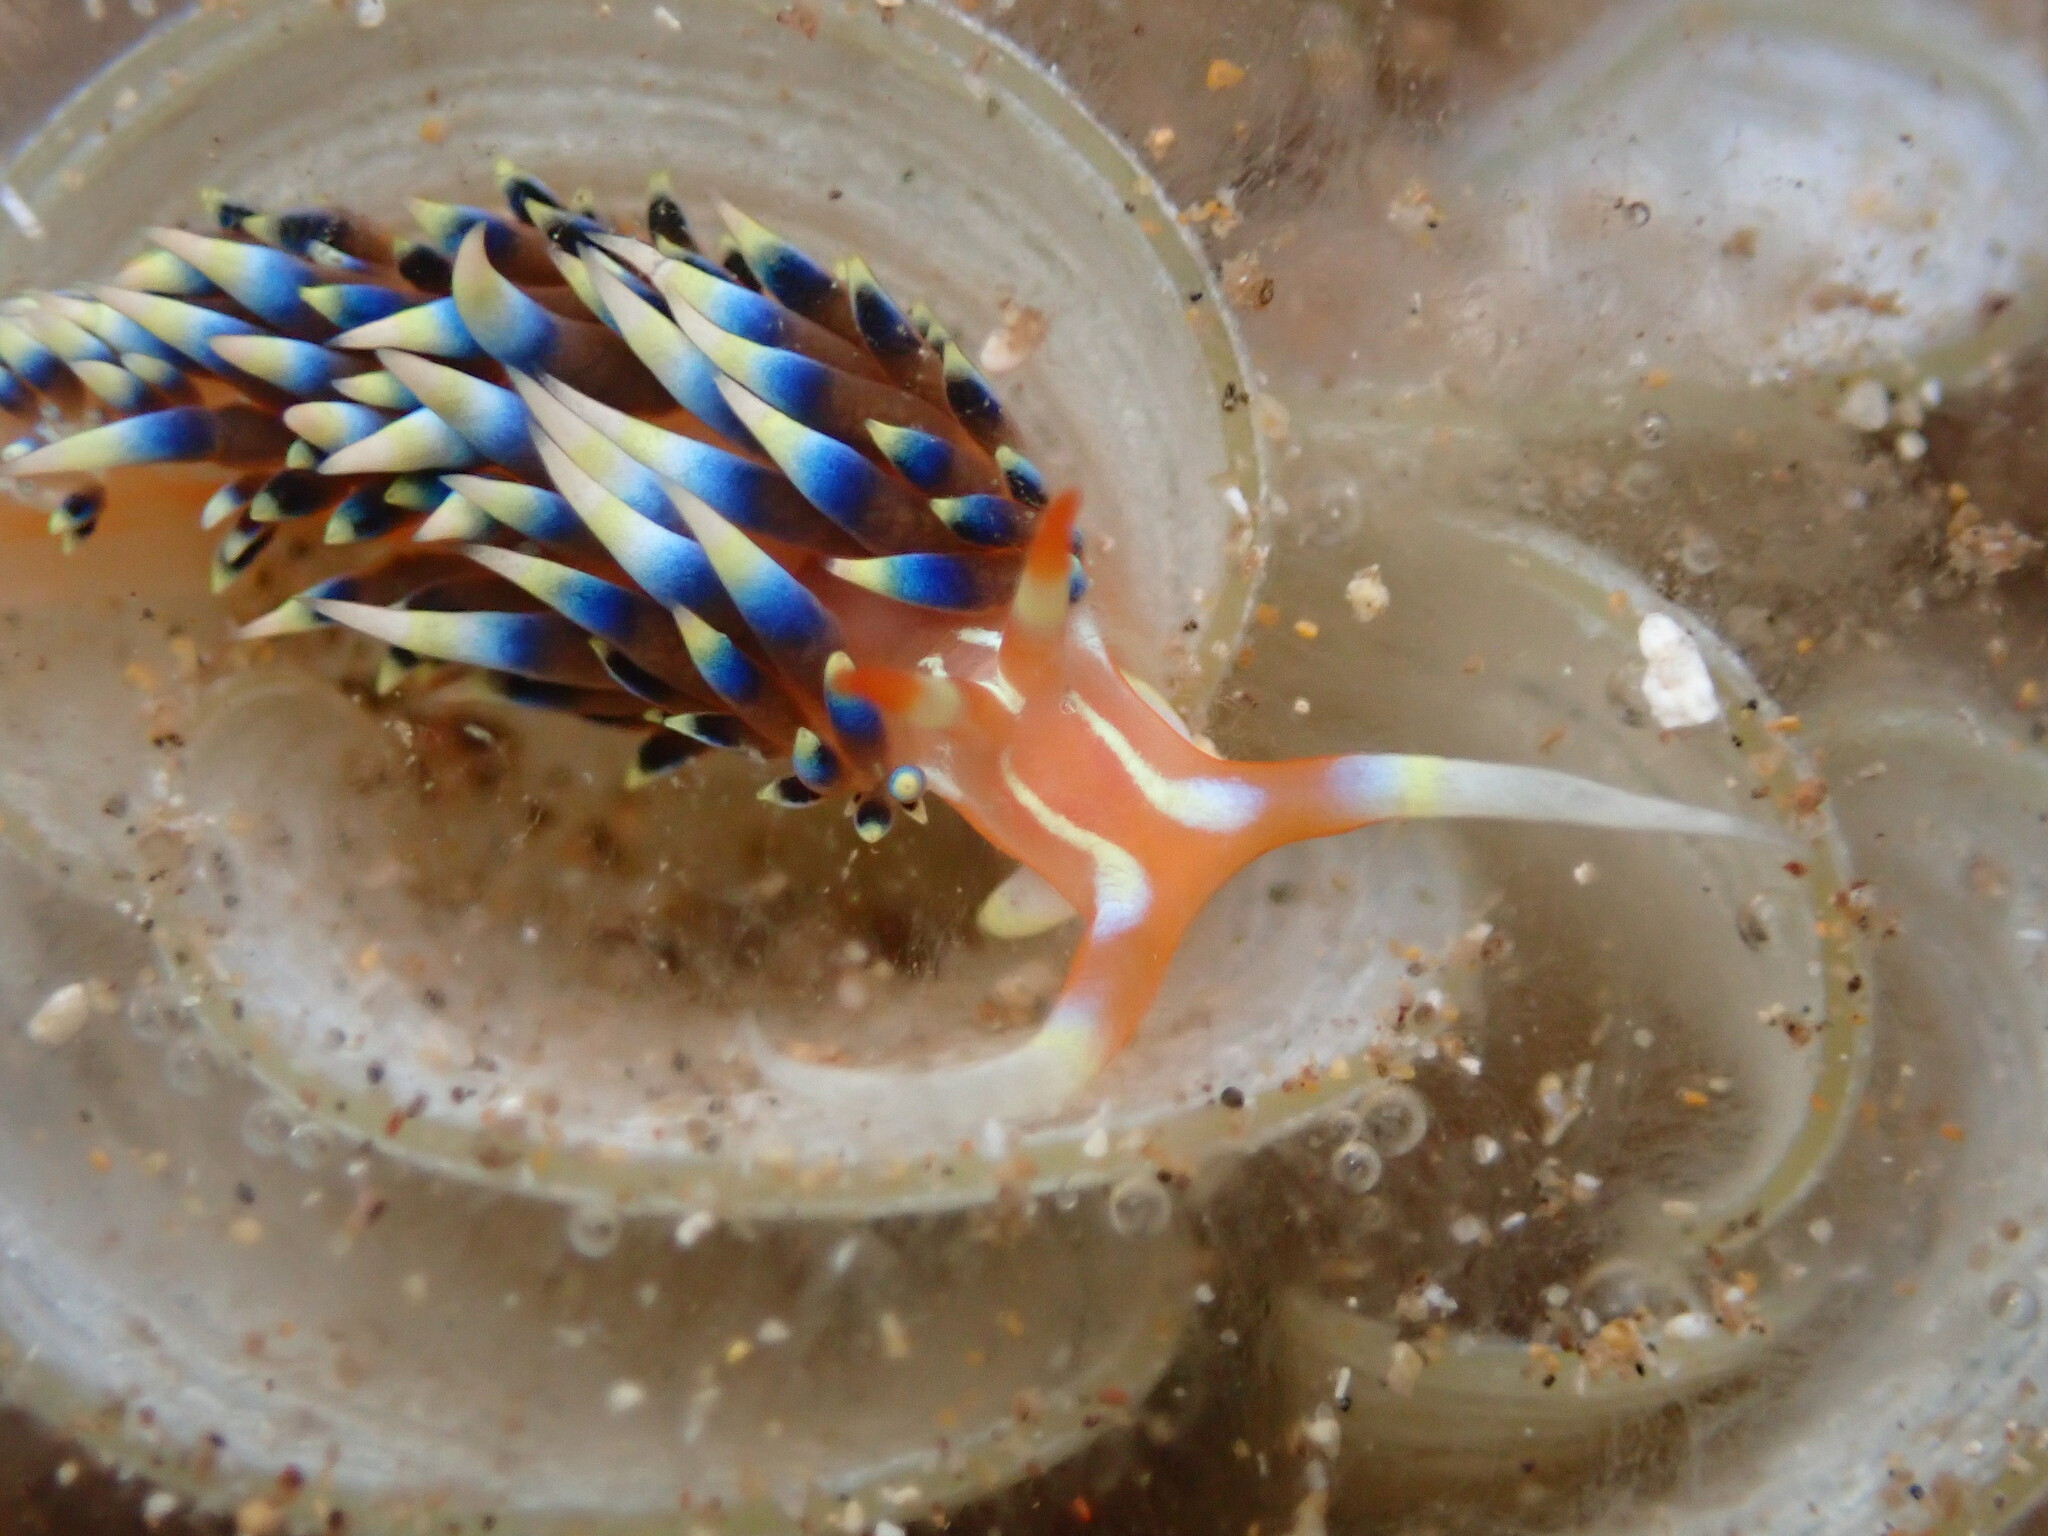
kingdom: Animalia
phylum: Mollusca
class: Gastropoda
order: Nudibranchia
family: Facelinidae
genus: Caloria
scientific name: Caloria indica
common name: Sea slug
